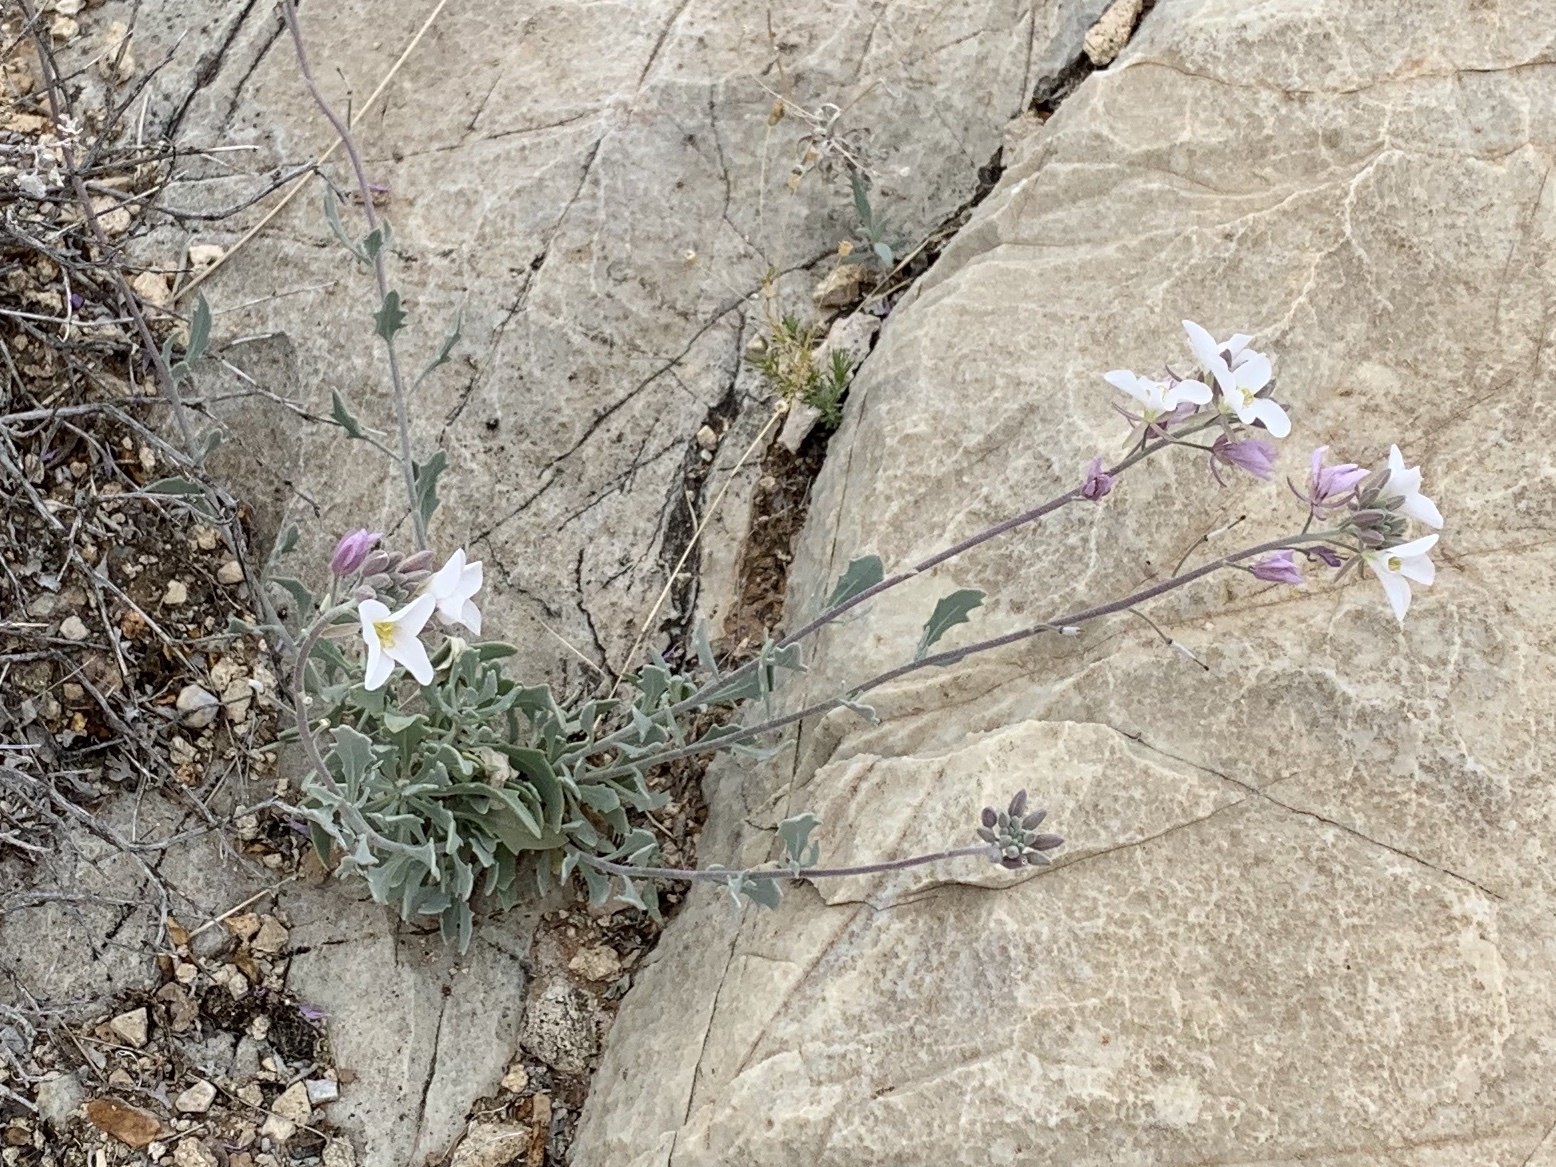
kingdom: Plantae
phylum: Tracheophyta
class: Magnoliopsida
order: Brassicales
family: Brassicaceae
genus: Nerisyrenia
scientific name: Nerisyrenia camporum
